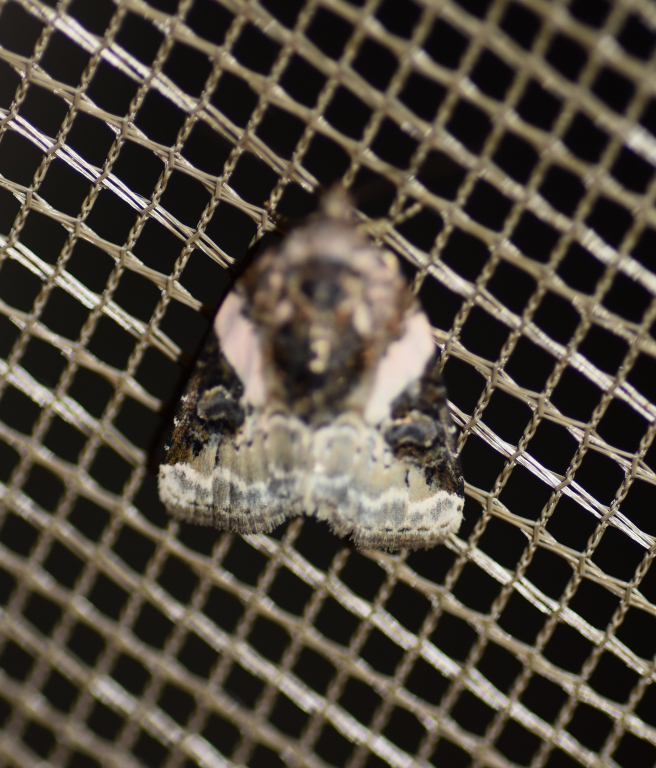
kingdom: Animalia
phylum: Arthropoda
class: Insecta
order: Lepidoptera
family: Noctuidae
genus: Pseudeustrotia
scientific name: Pseudeustrotia carneola
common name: Pink-barred lithacodia moth
